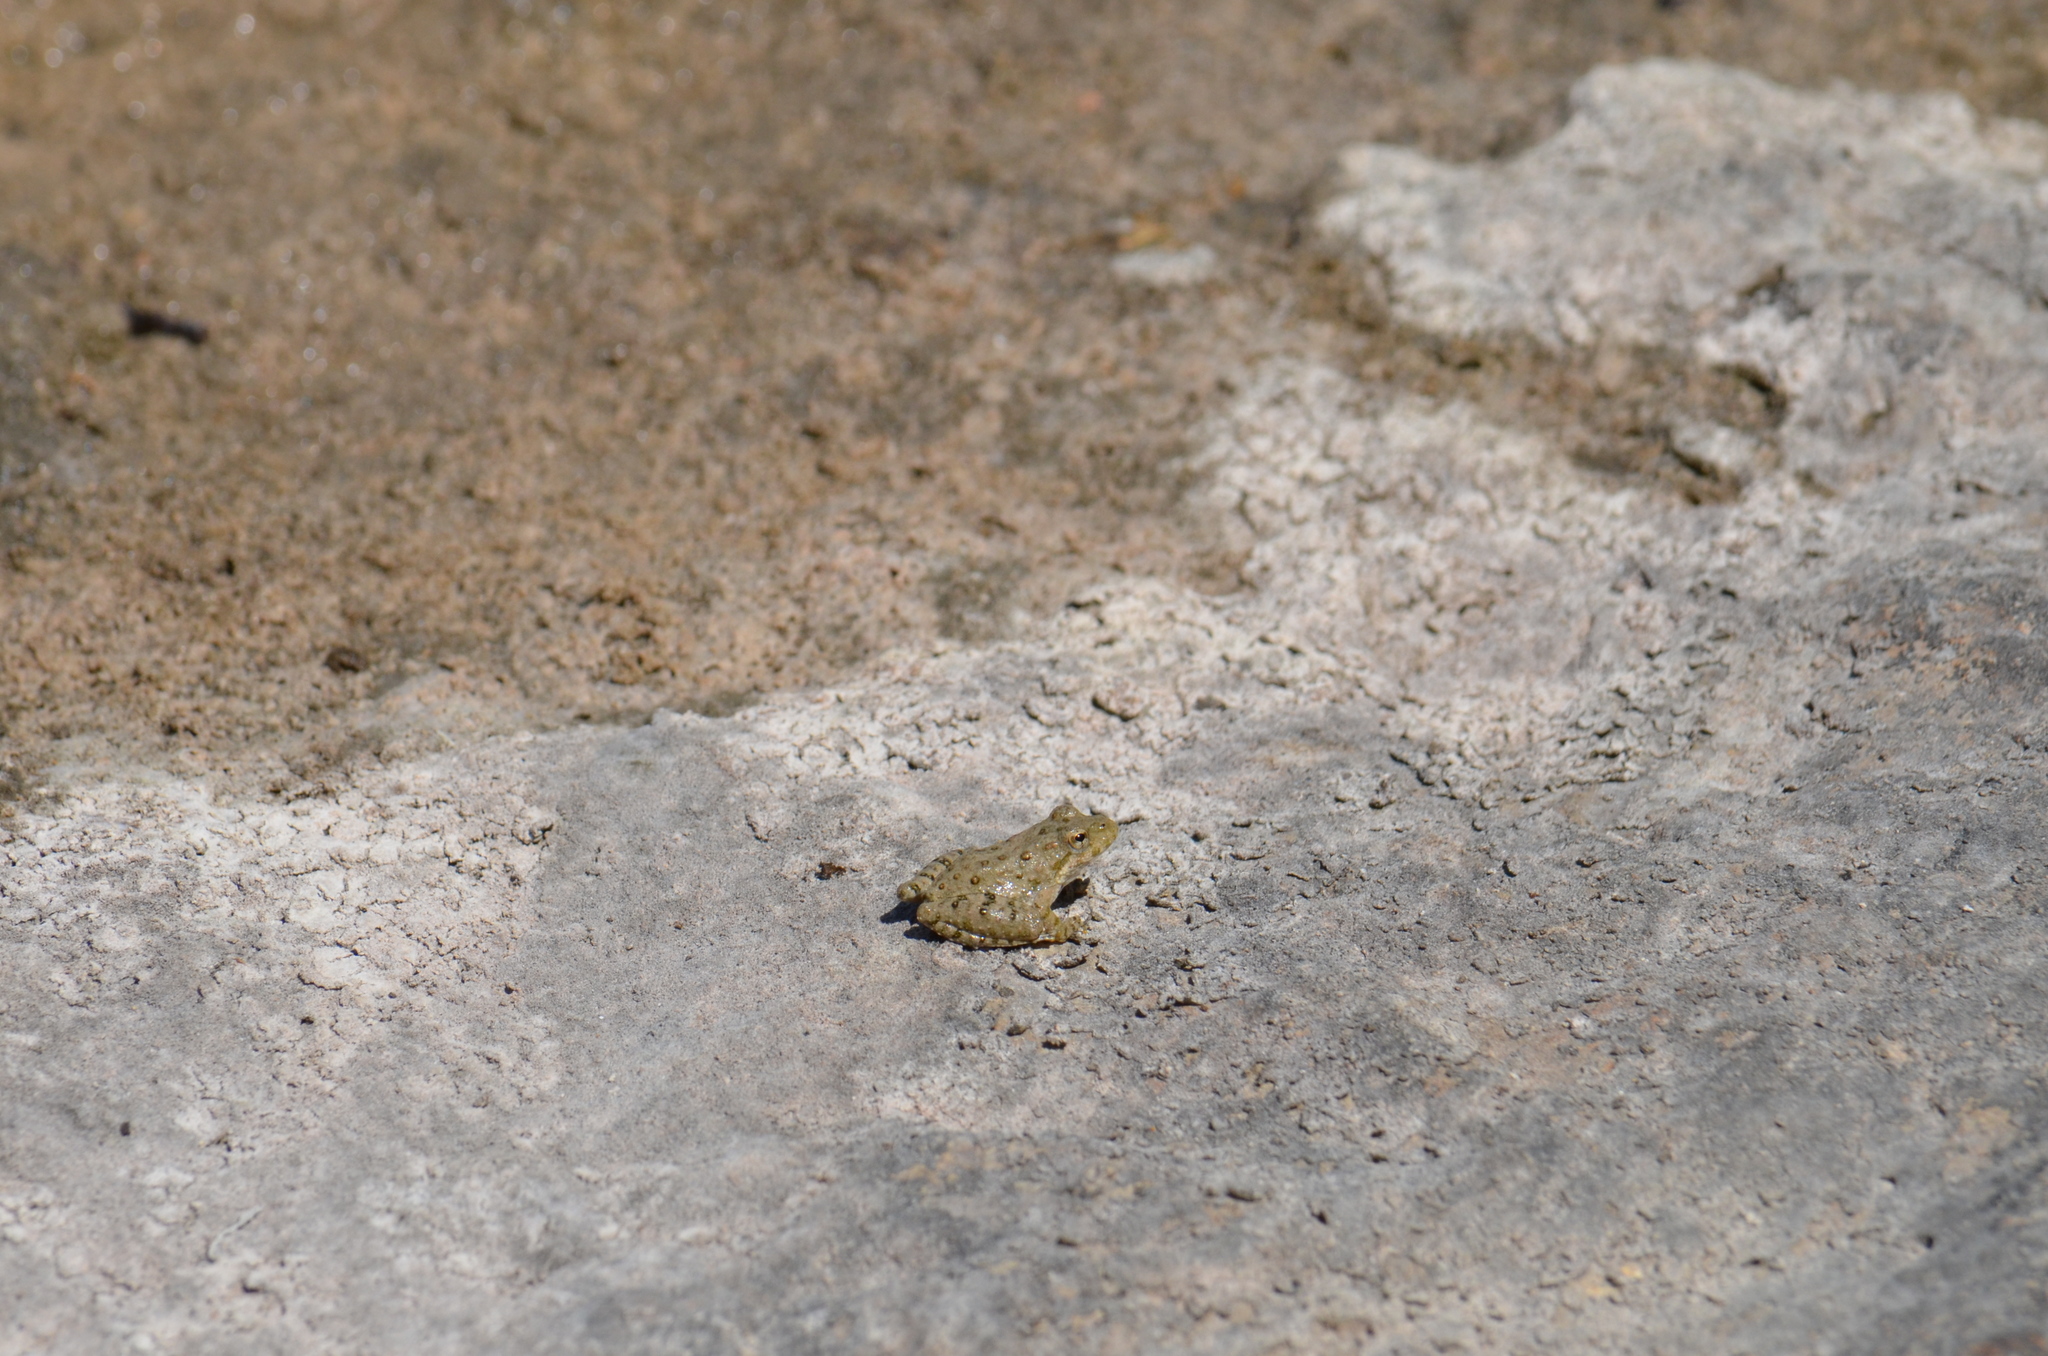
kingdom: Animalia
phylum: Chordata
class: Amphibia
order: Anura
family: Hylidae
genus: Acris
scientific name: Acris blanchardi
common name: Blanchard's cricket frog
